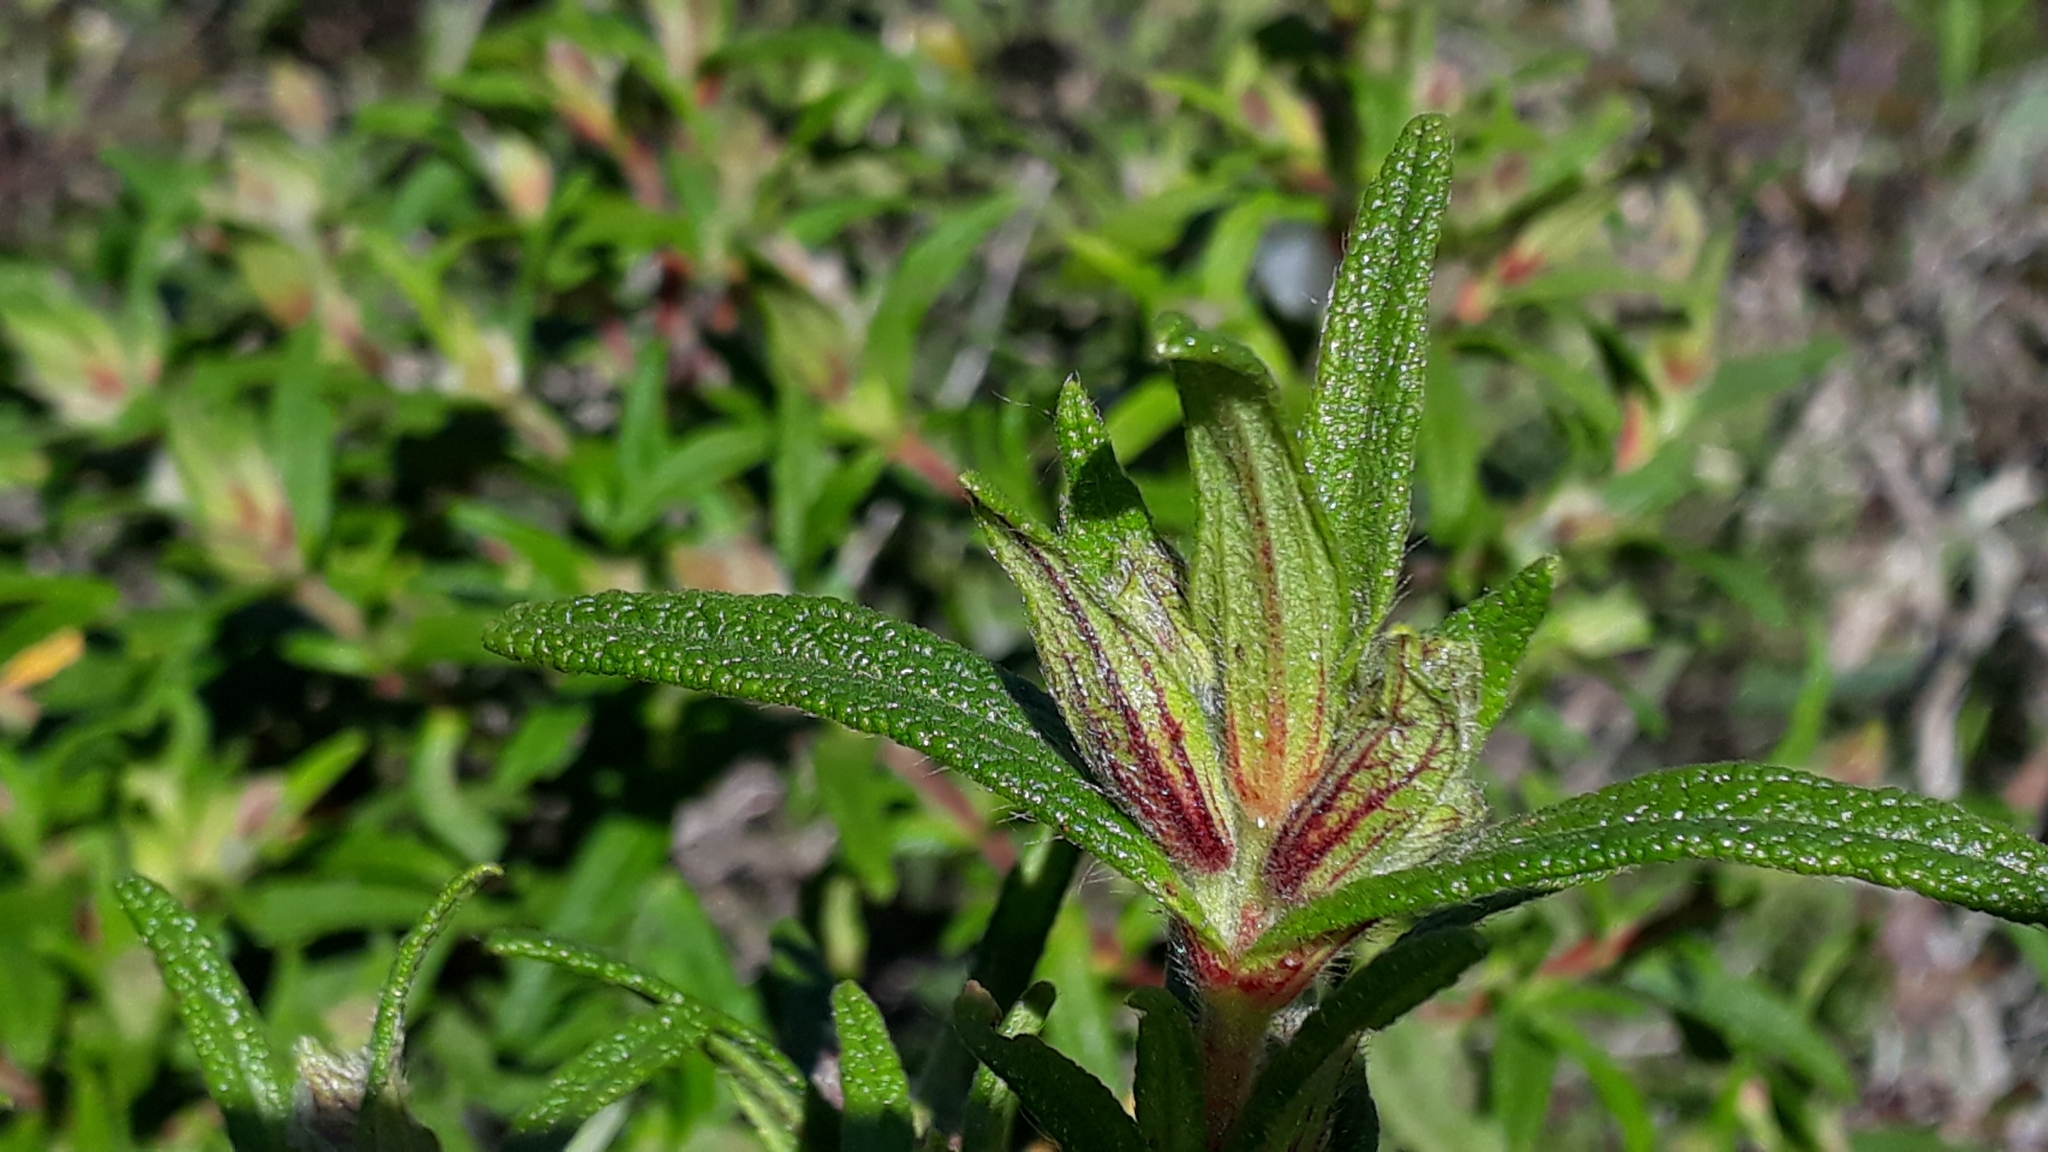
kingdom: Plantae
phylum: Tracheophyta
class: Magnoliopsida
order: Malvales
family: Cistaceae
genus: Cistus
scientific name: Cistus monspeliensis
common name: Montpelier cistus
